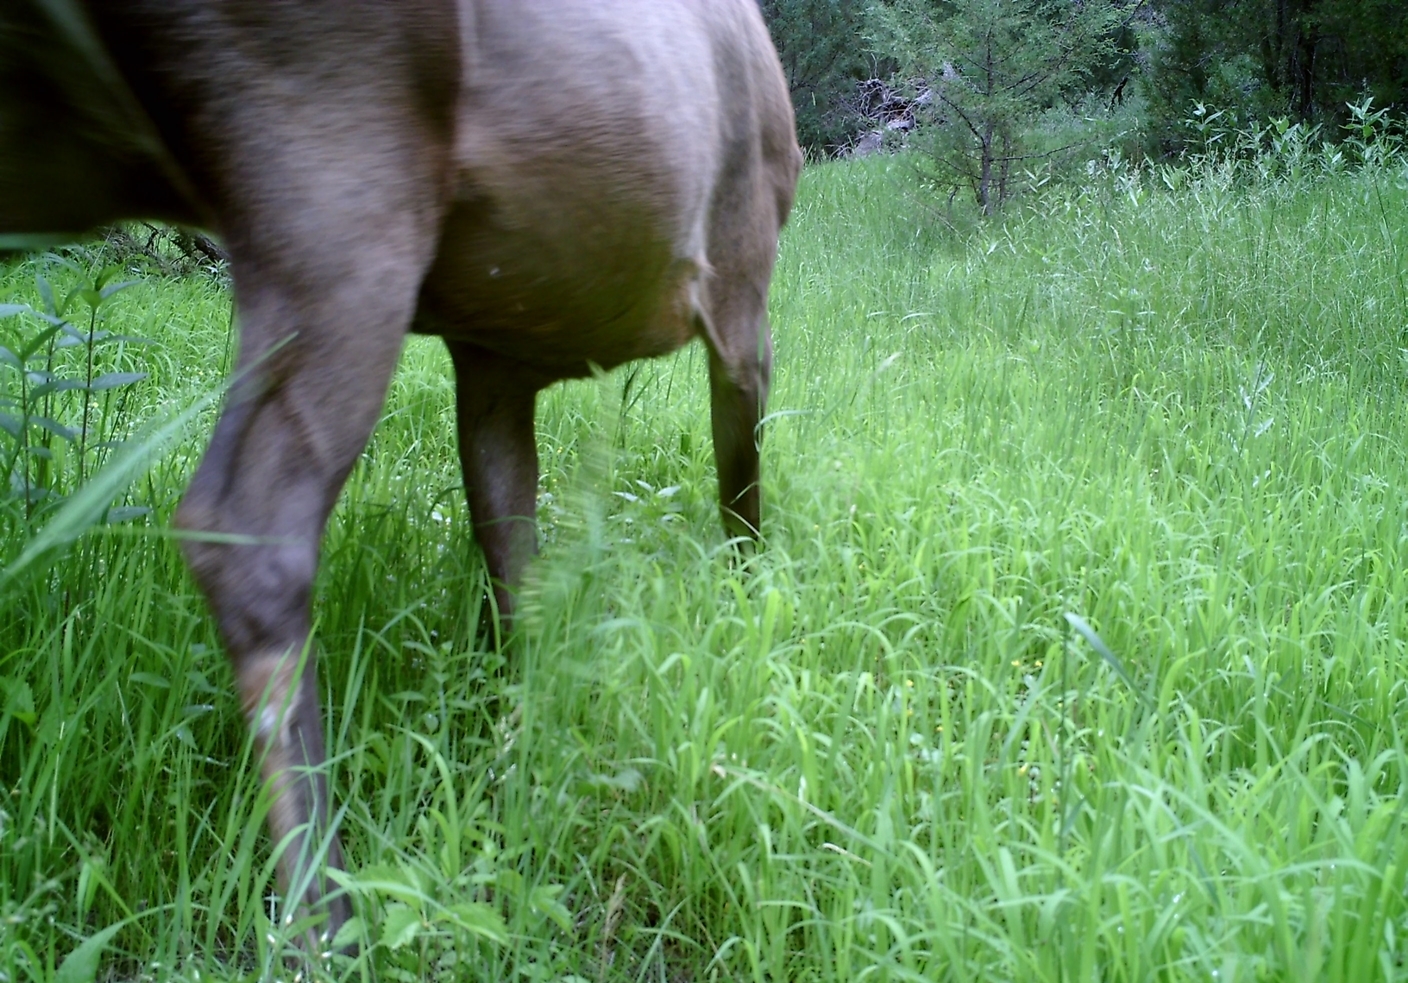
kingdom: Animalia
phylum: Chordata
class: Mammalia
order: Artiodactyla
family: Cervidae
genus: Cervus
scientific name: Cervus elaphus
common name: Red deer
